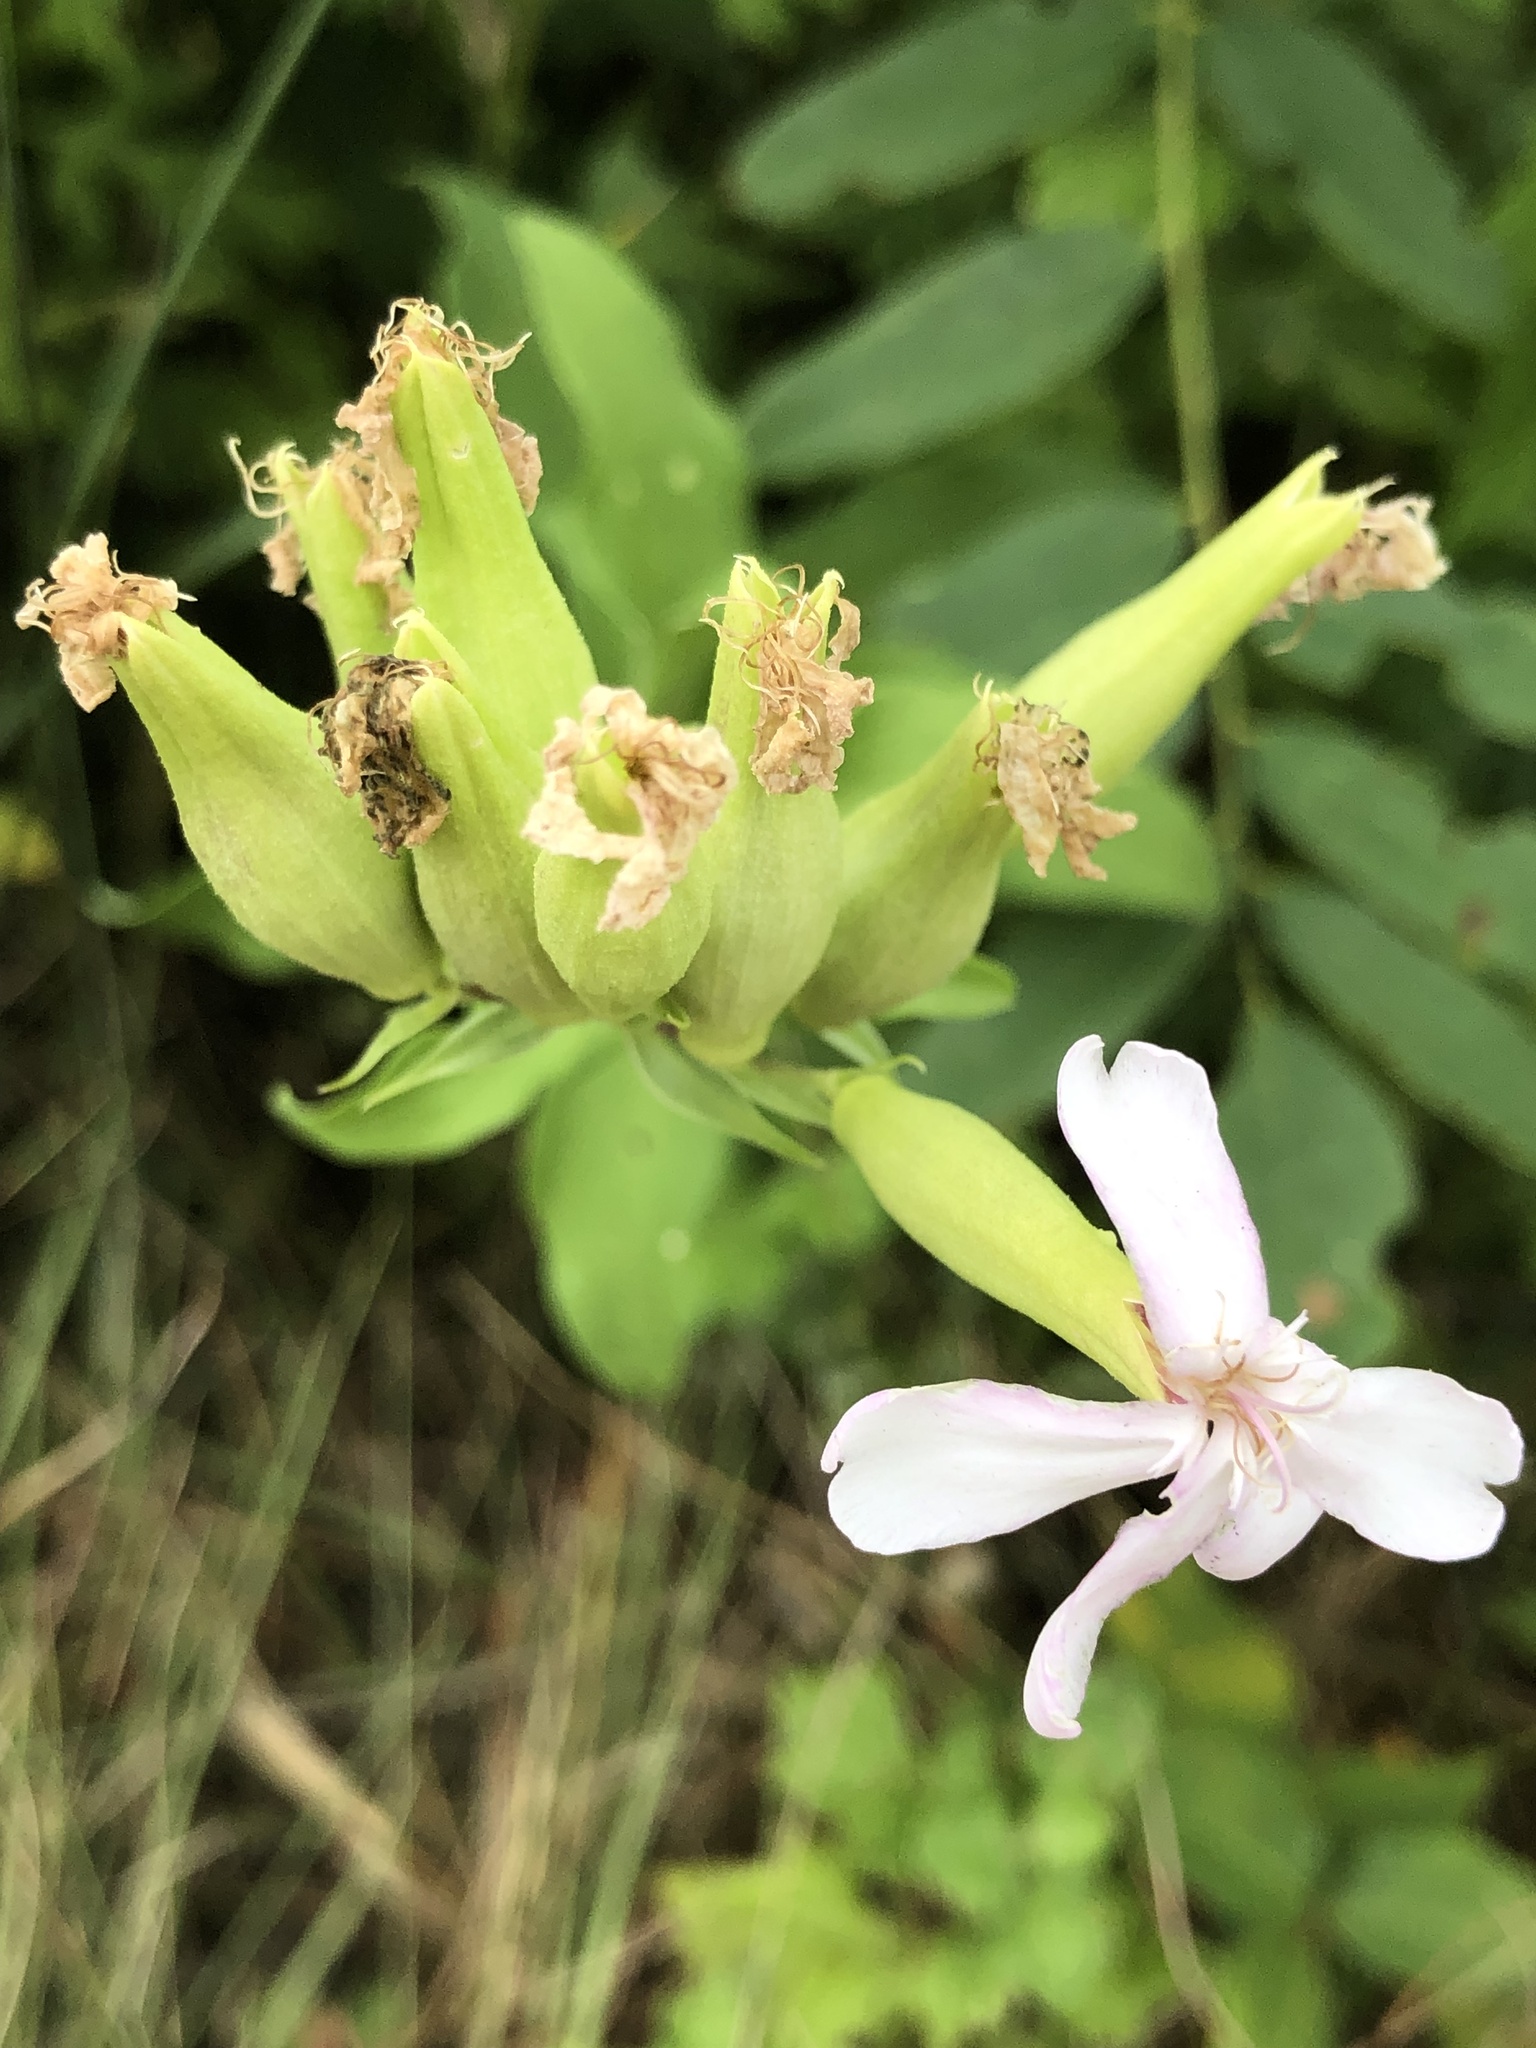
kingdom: Plantae
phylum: Tracheophyta
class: Magnoliopsida
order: Caryophyllales
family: Caryophyllaceae
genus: Saponaria
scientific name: Saponaria officinalis
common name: Soapwort
